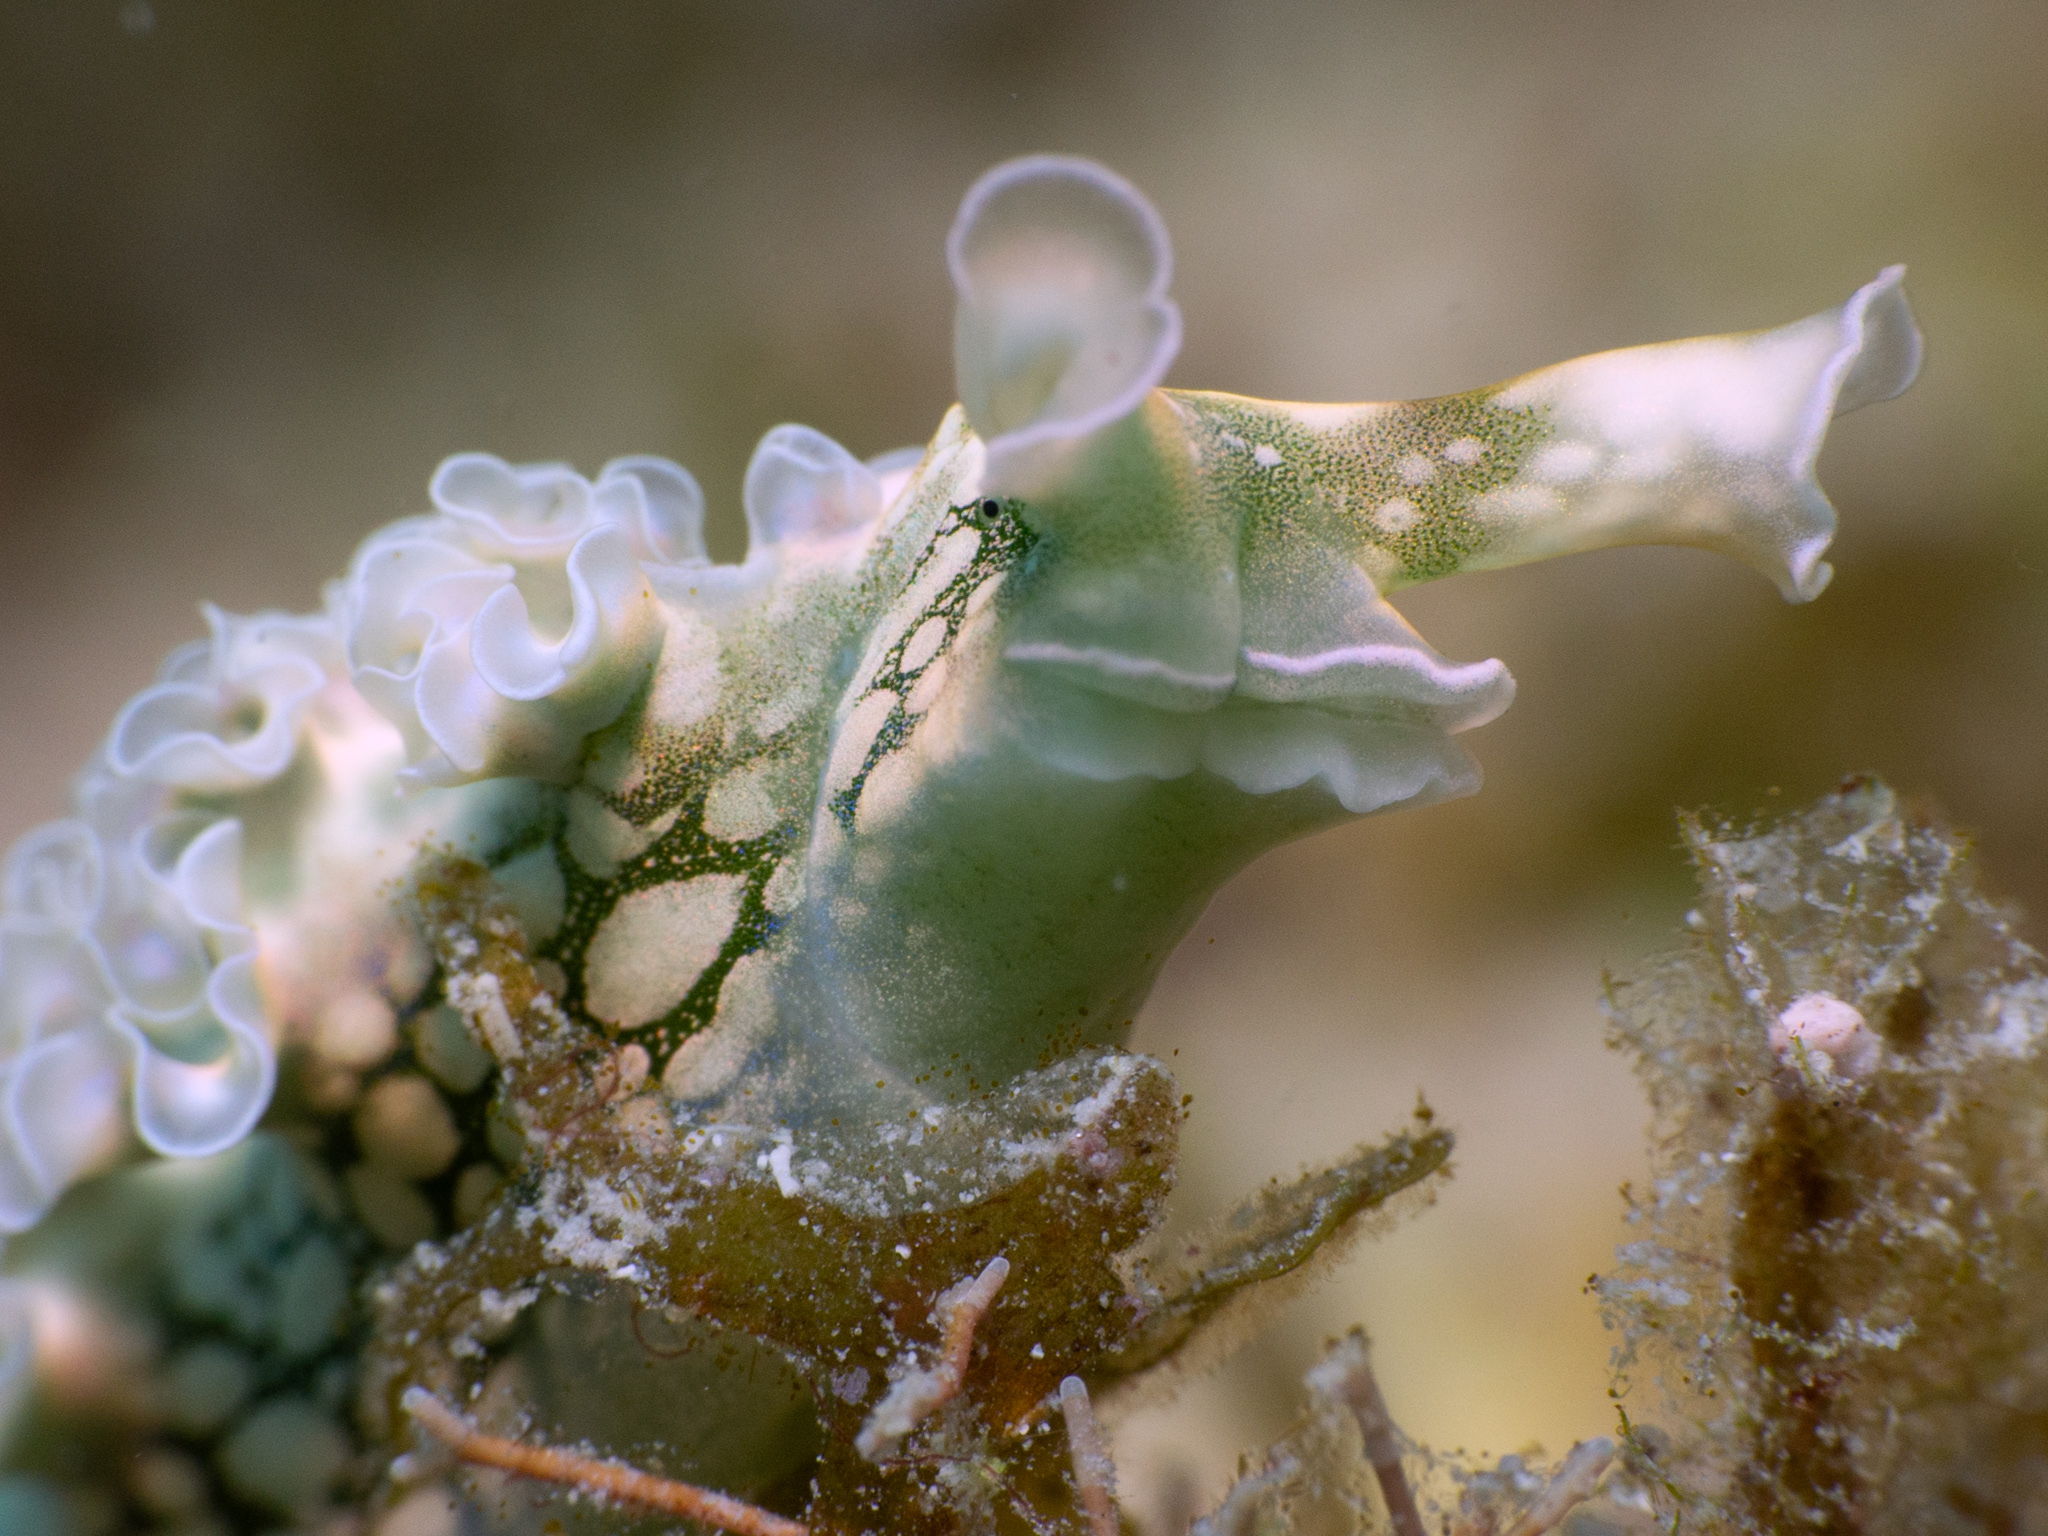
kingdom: Animalia
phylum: Mollusca
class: Gastropoda
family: Plakobranchidae
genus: Elysia
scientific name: Elysia crispata
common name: Lettuce slug
